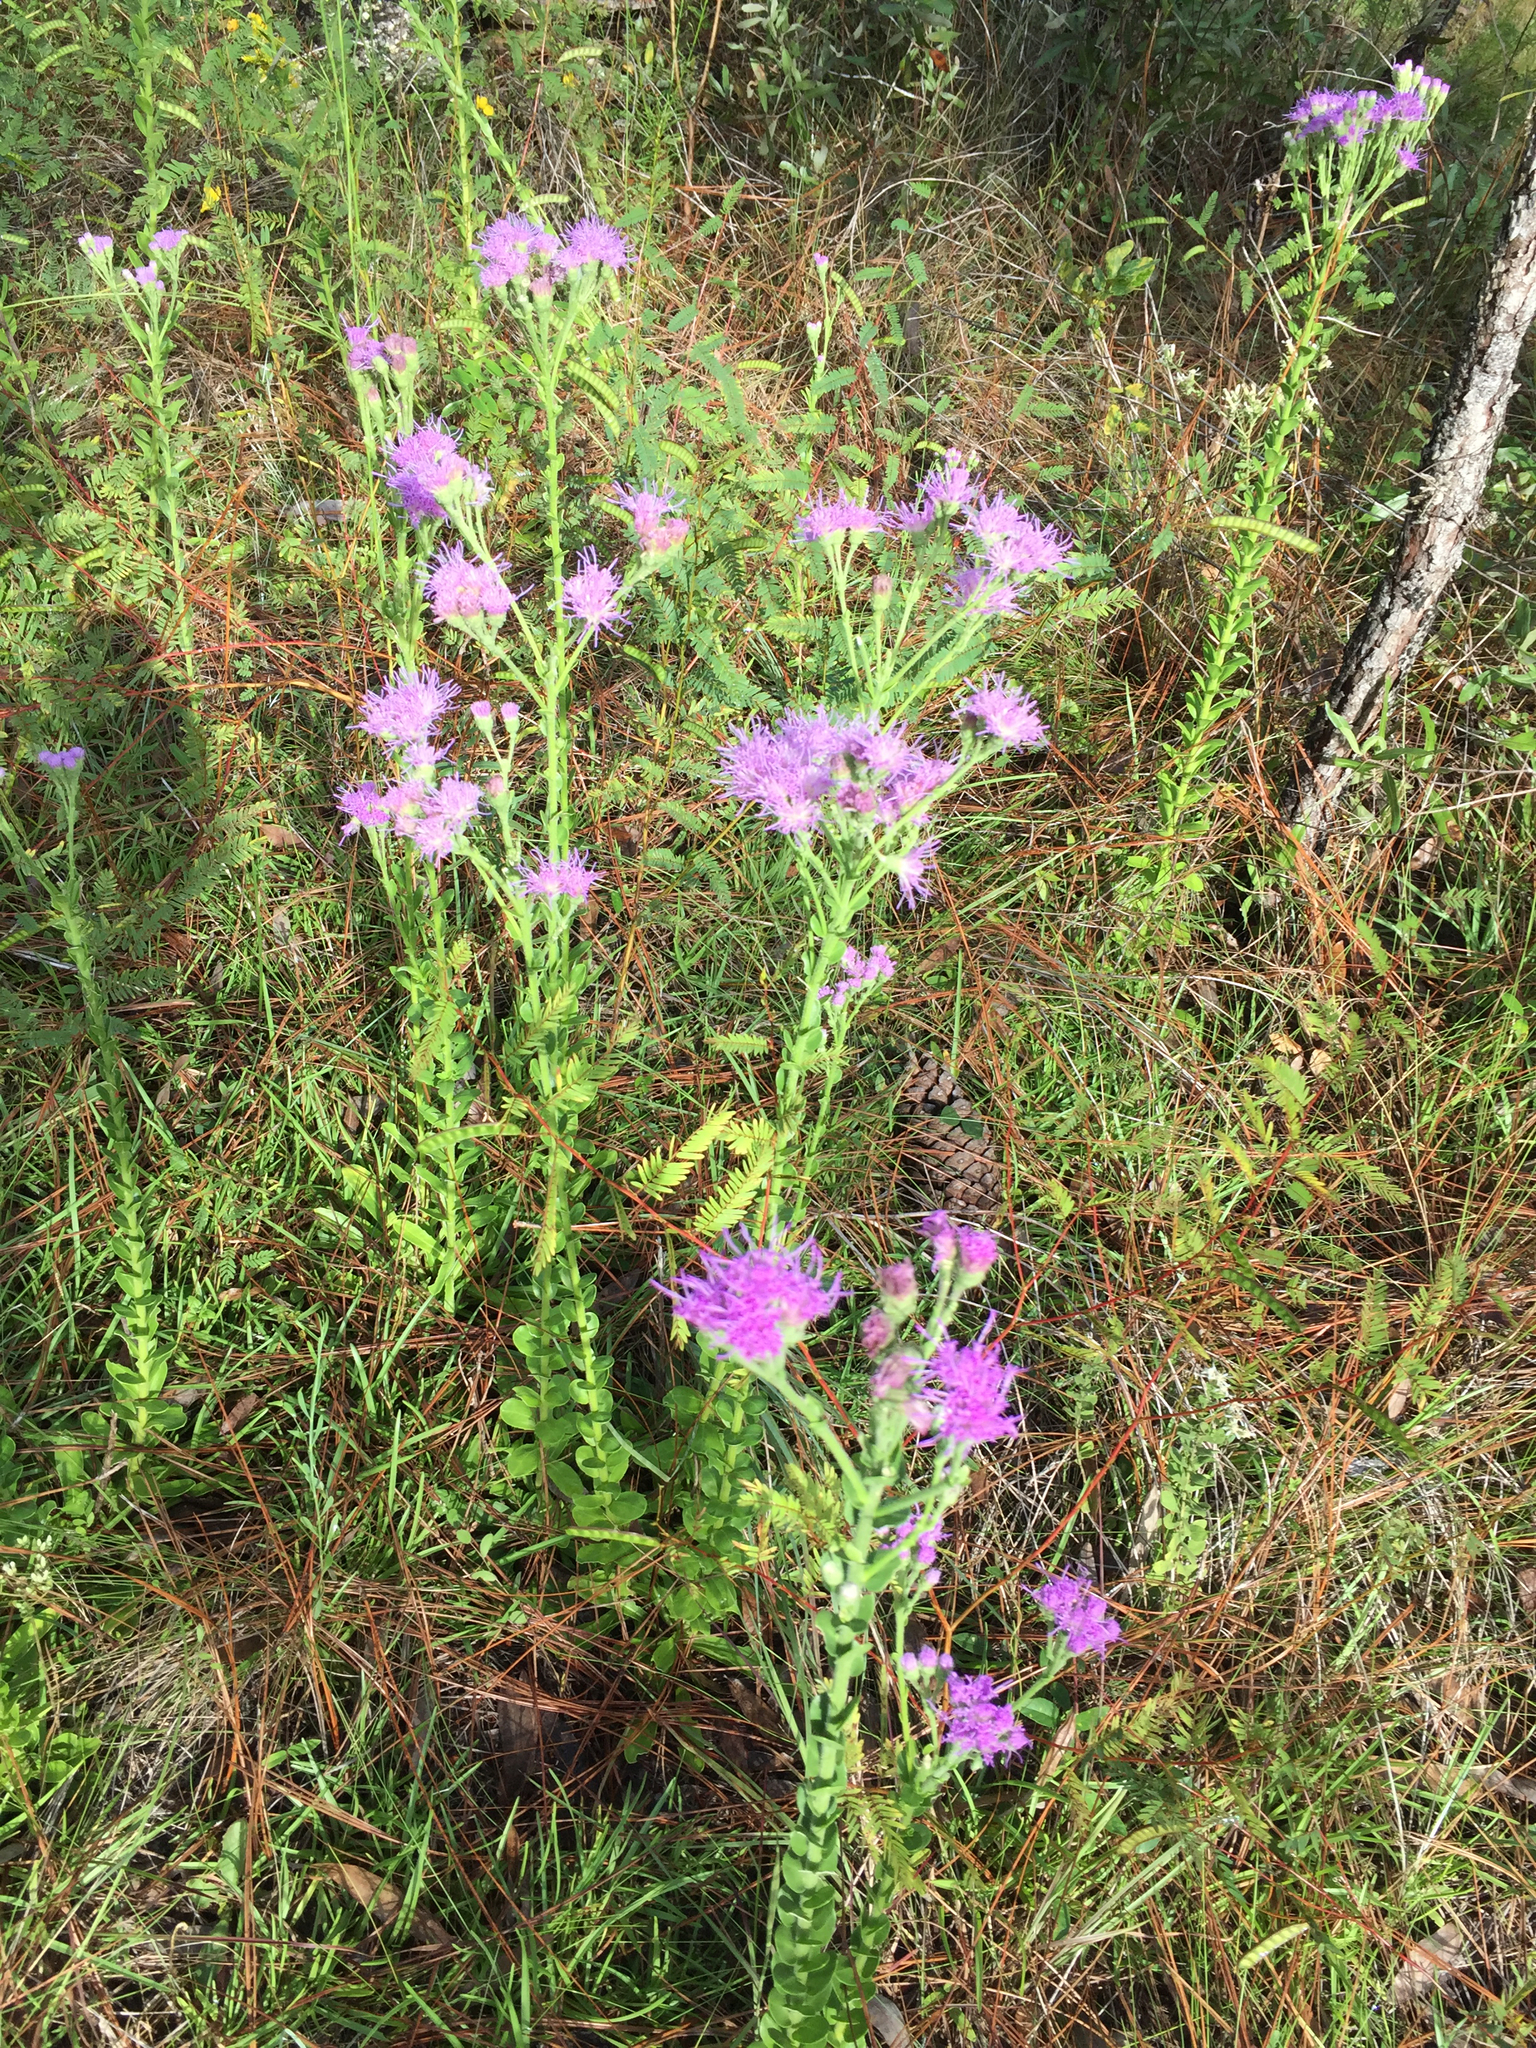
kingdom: Plantae
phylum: Tracheophyta
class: Magnoliopsida
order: Asterales
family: Asteraceae
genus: Carphephorus
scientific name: Carphephorus corymbosus
